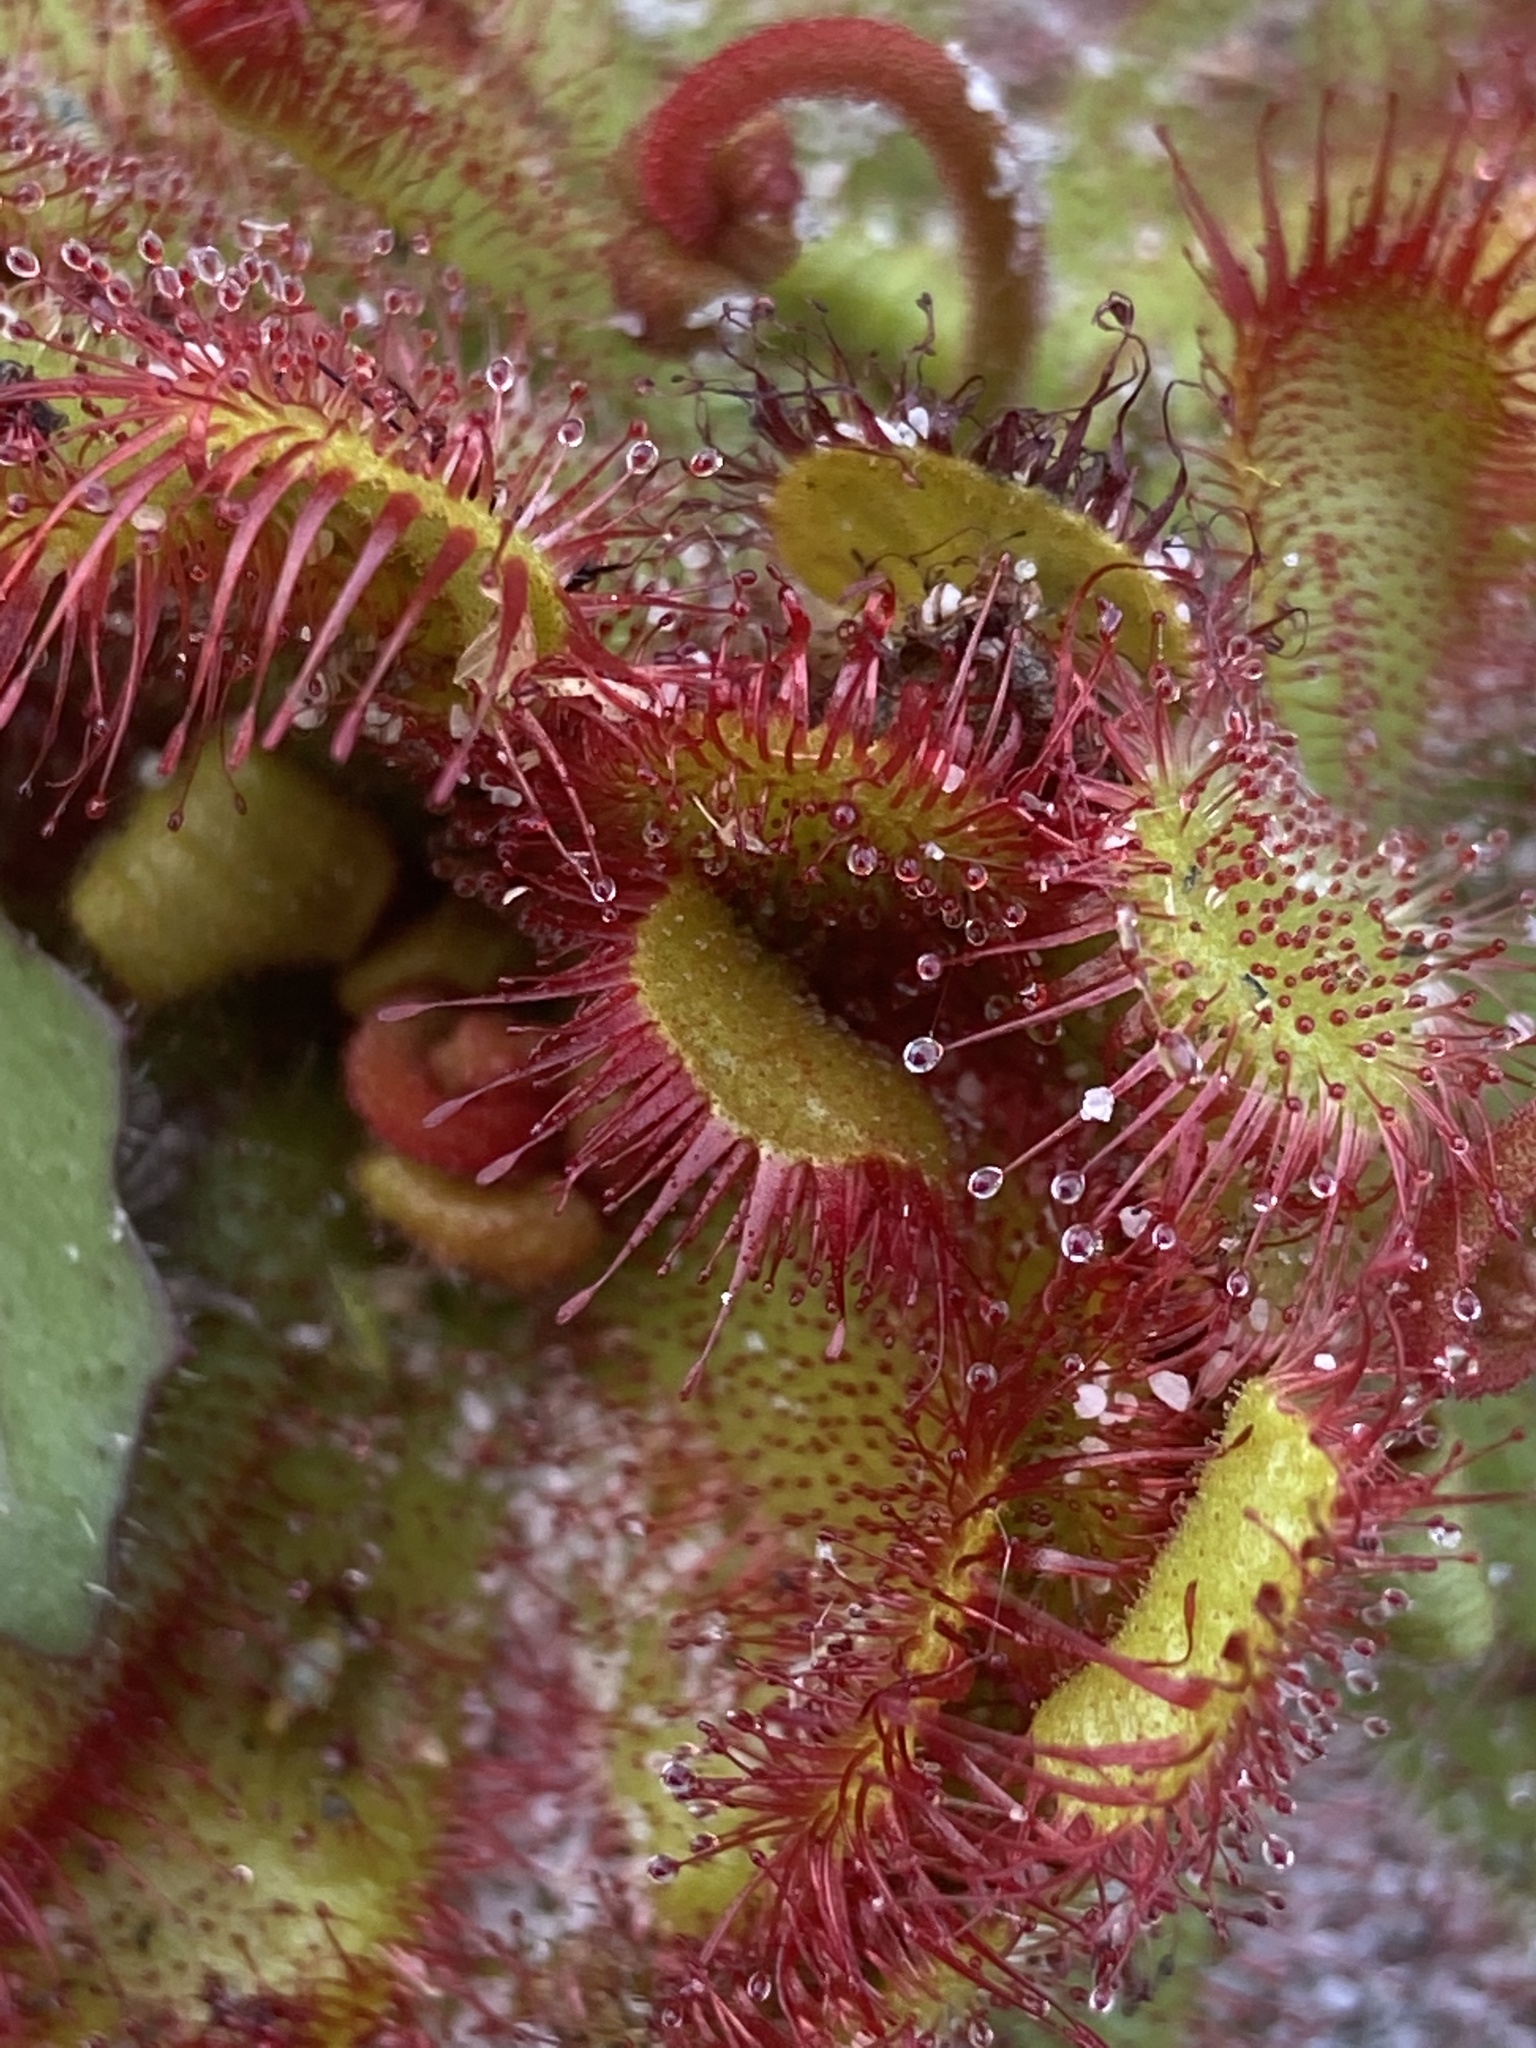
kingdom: Plantae
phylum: Tracheophyta
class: Magnoliopsida
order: Caryophyllales
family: Droseraceae
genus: Drosera
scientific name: Drosera trinervia
